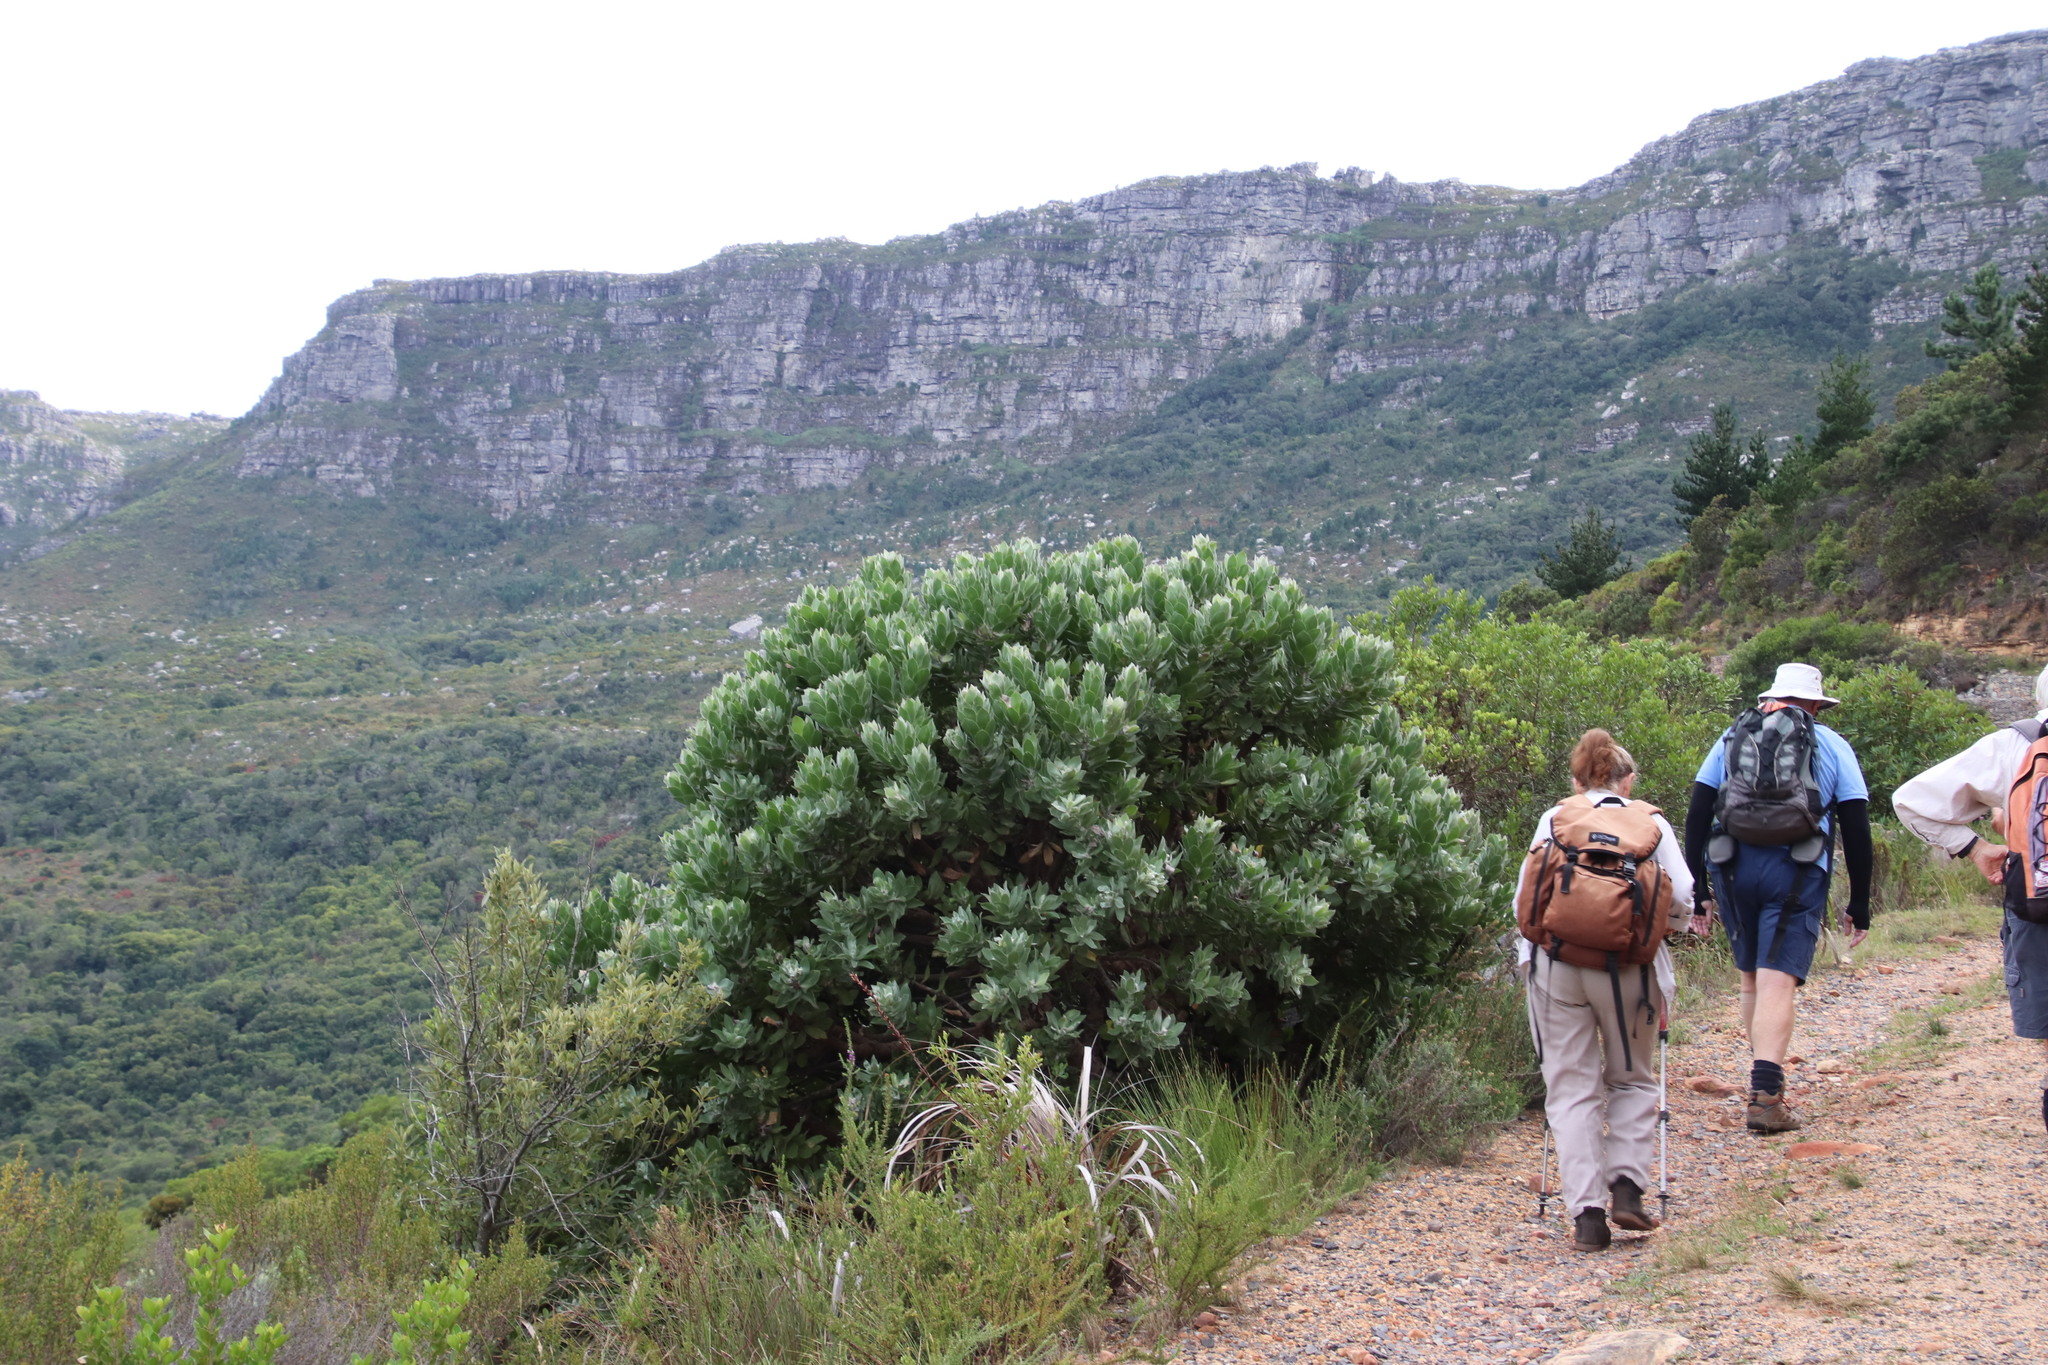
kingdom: Plantae
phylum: Tracheophyta
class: Magnoliopsida
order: Proteales
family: Proteaceae
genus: Leucospermum
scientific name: Leucospermum conocarpodendron
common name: Tree pincushion
